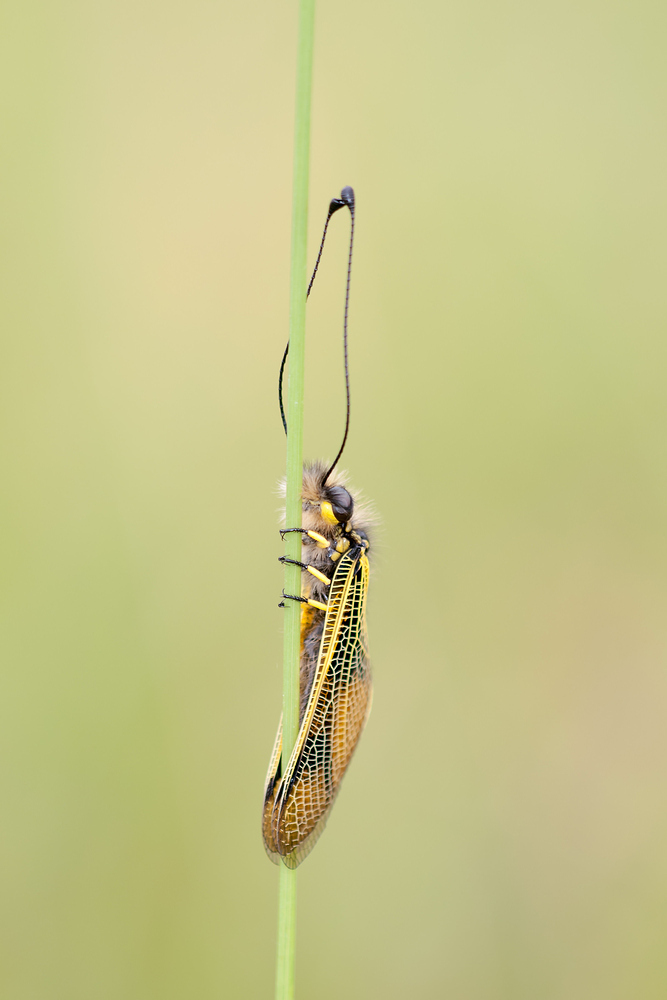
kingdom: Animalia
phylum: Arthropoda
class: Insecta
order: Neuroptera
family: Ascalaphidae
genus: Libelloides
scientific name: Libelloides longicornis
